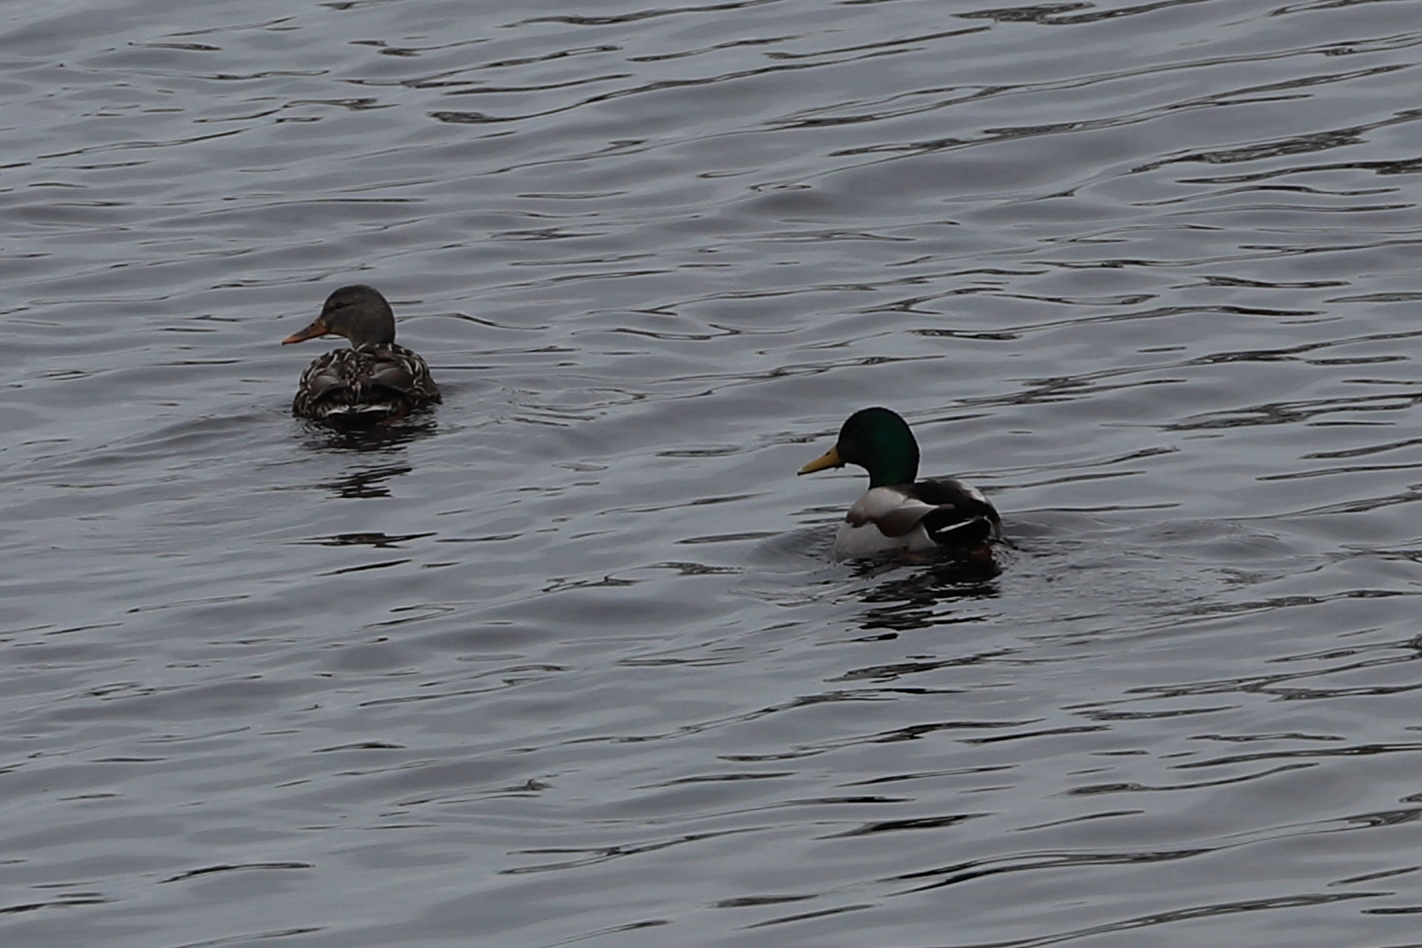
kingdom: Animalia
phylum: Chordata
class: Aves
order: Anseriformes
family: Anatidae
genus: Anas
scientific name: Anas platyrhynchos
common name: Mallard
